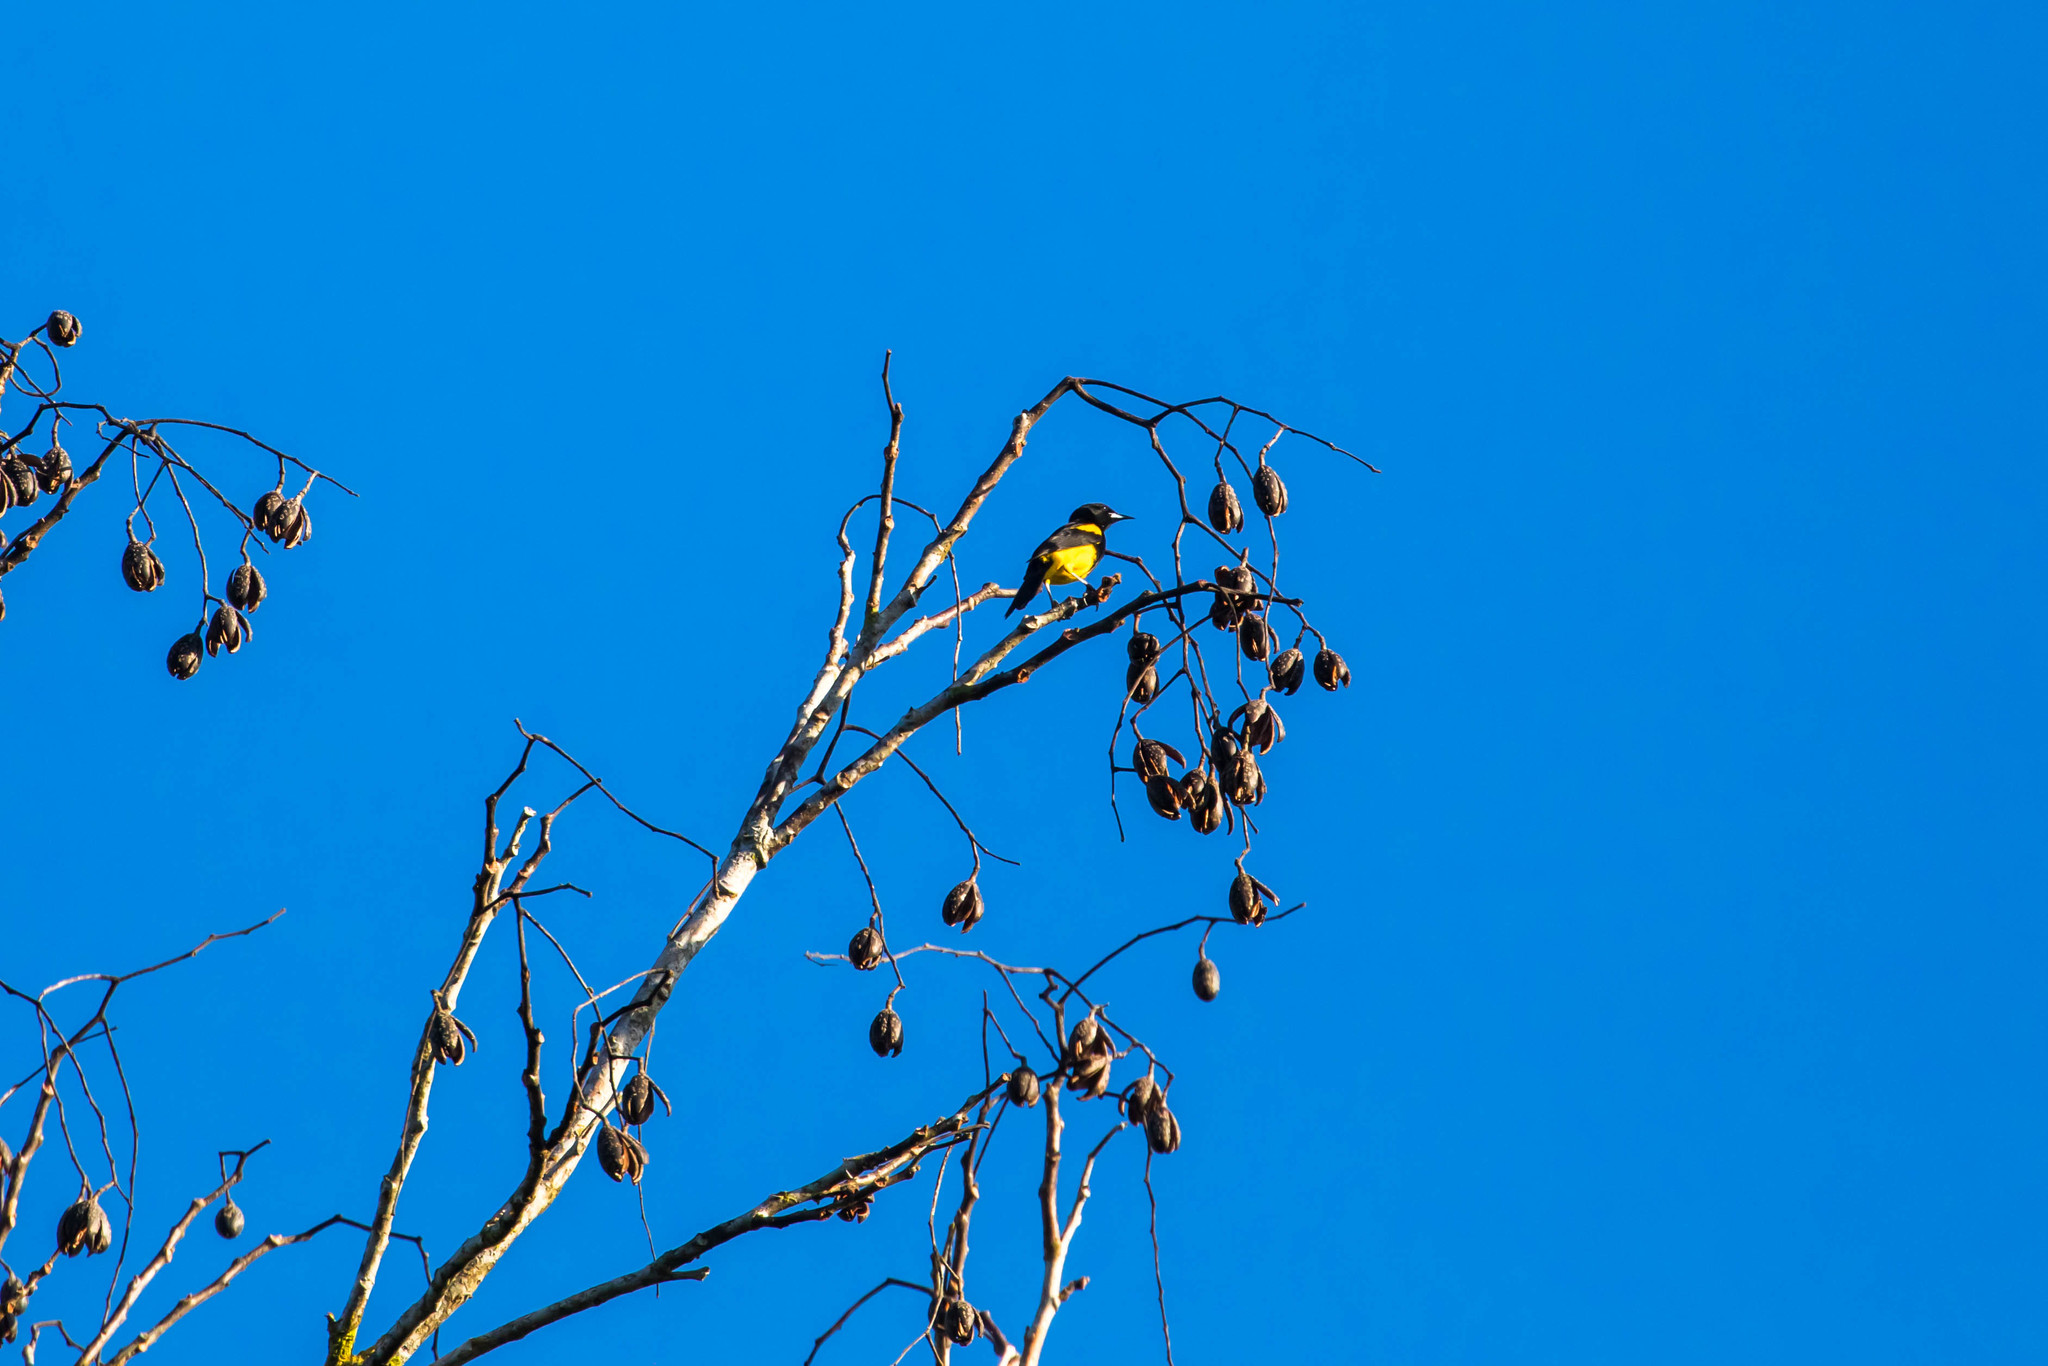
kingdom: Animalia
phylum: Chordata
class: Aves
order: Passeriformes
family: Icteridae
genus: Icterus
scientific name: Icterus prosthemelas
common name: Black-cowled oriole
